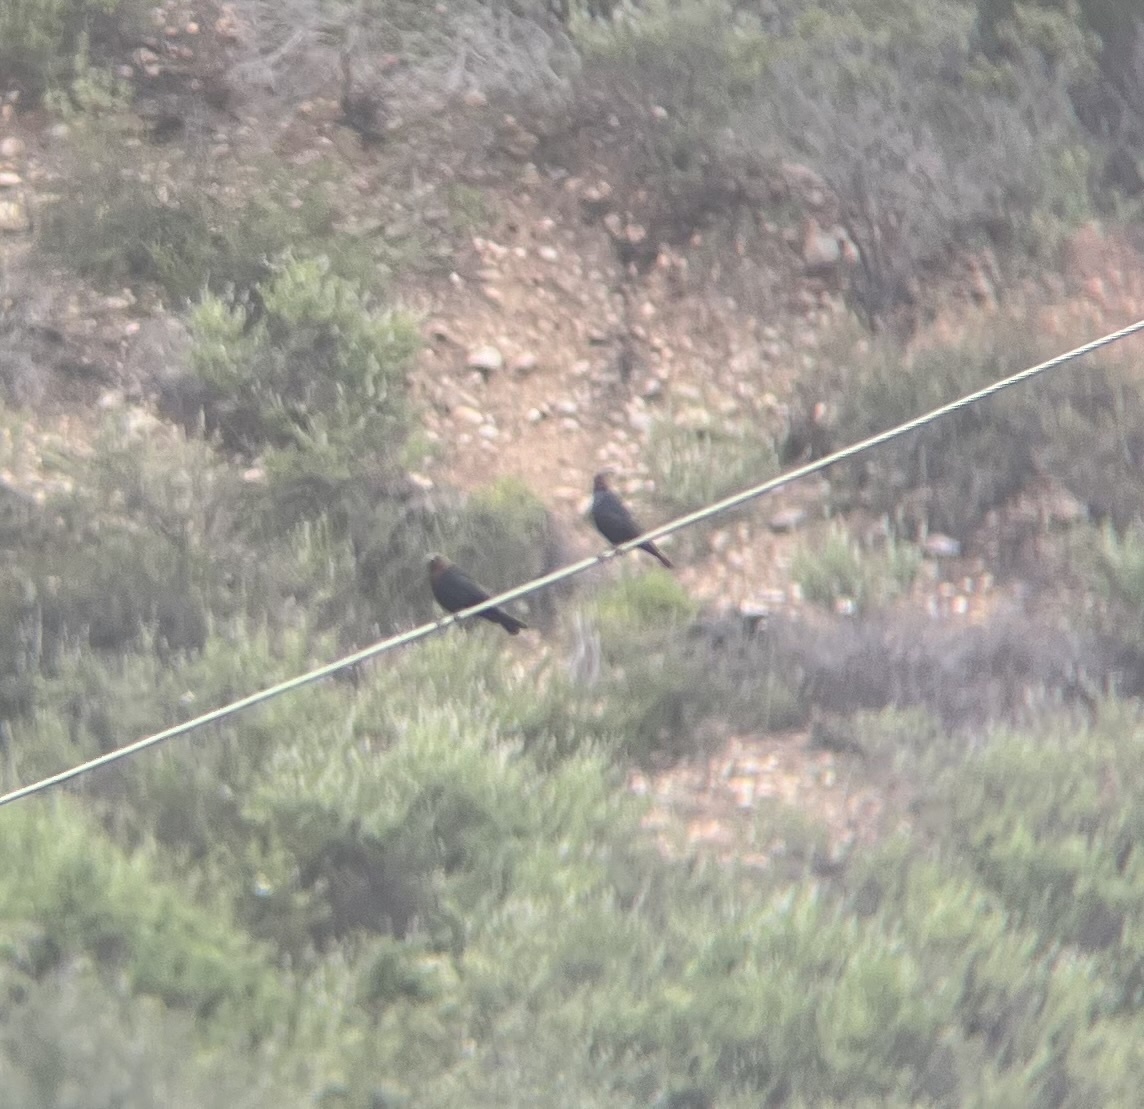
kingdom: Animalia
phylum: Chordata
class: Aves
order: Passeriformes
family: Icteridae
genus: Molothrus
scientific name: Molothrus ater
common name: Brown-headed cowbird
